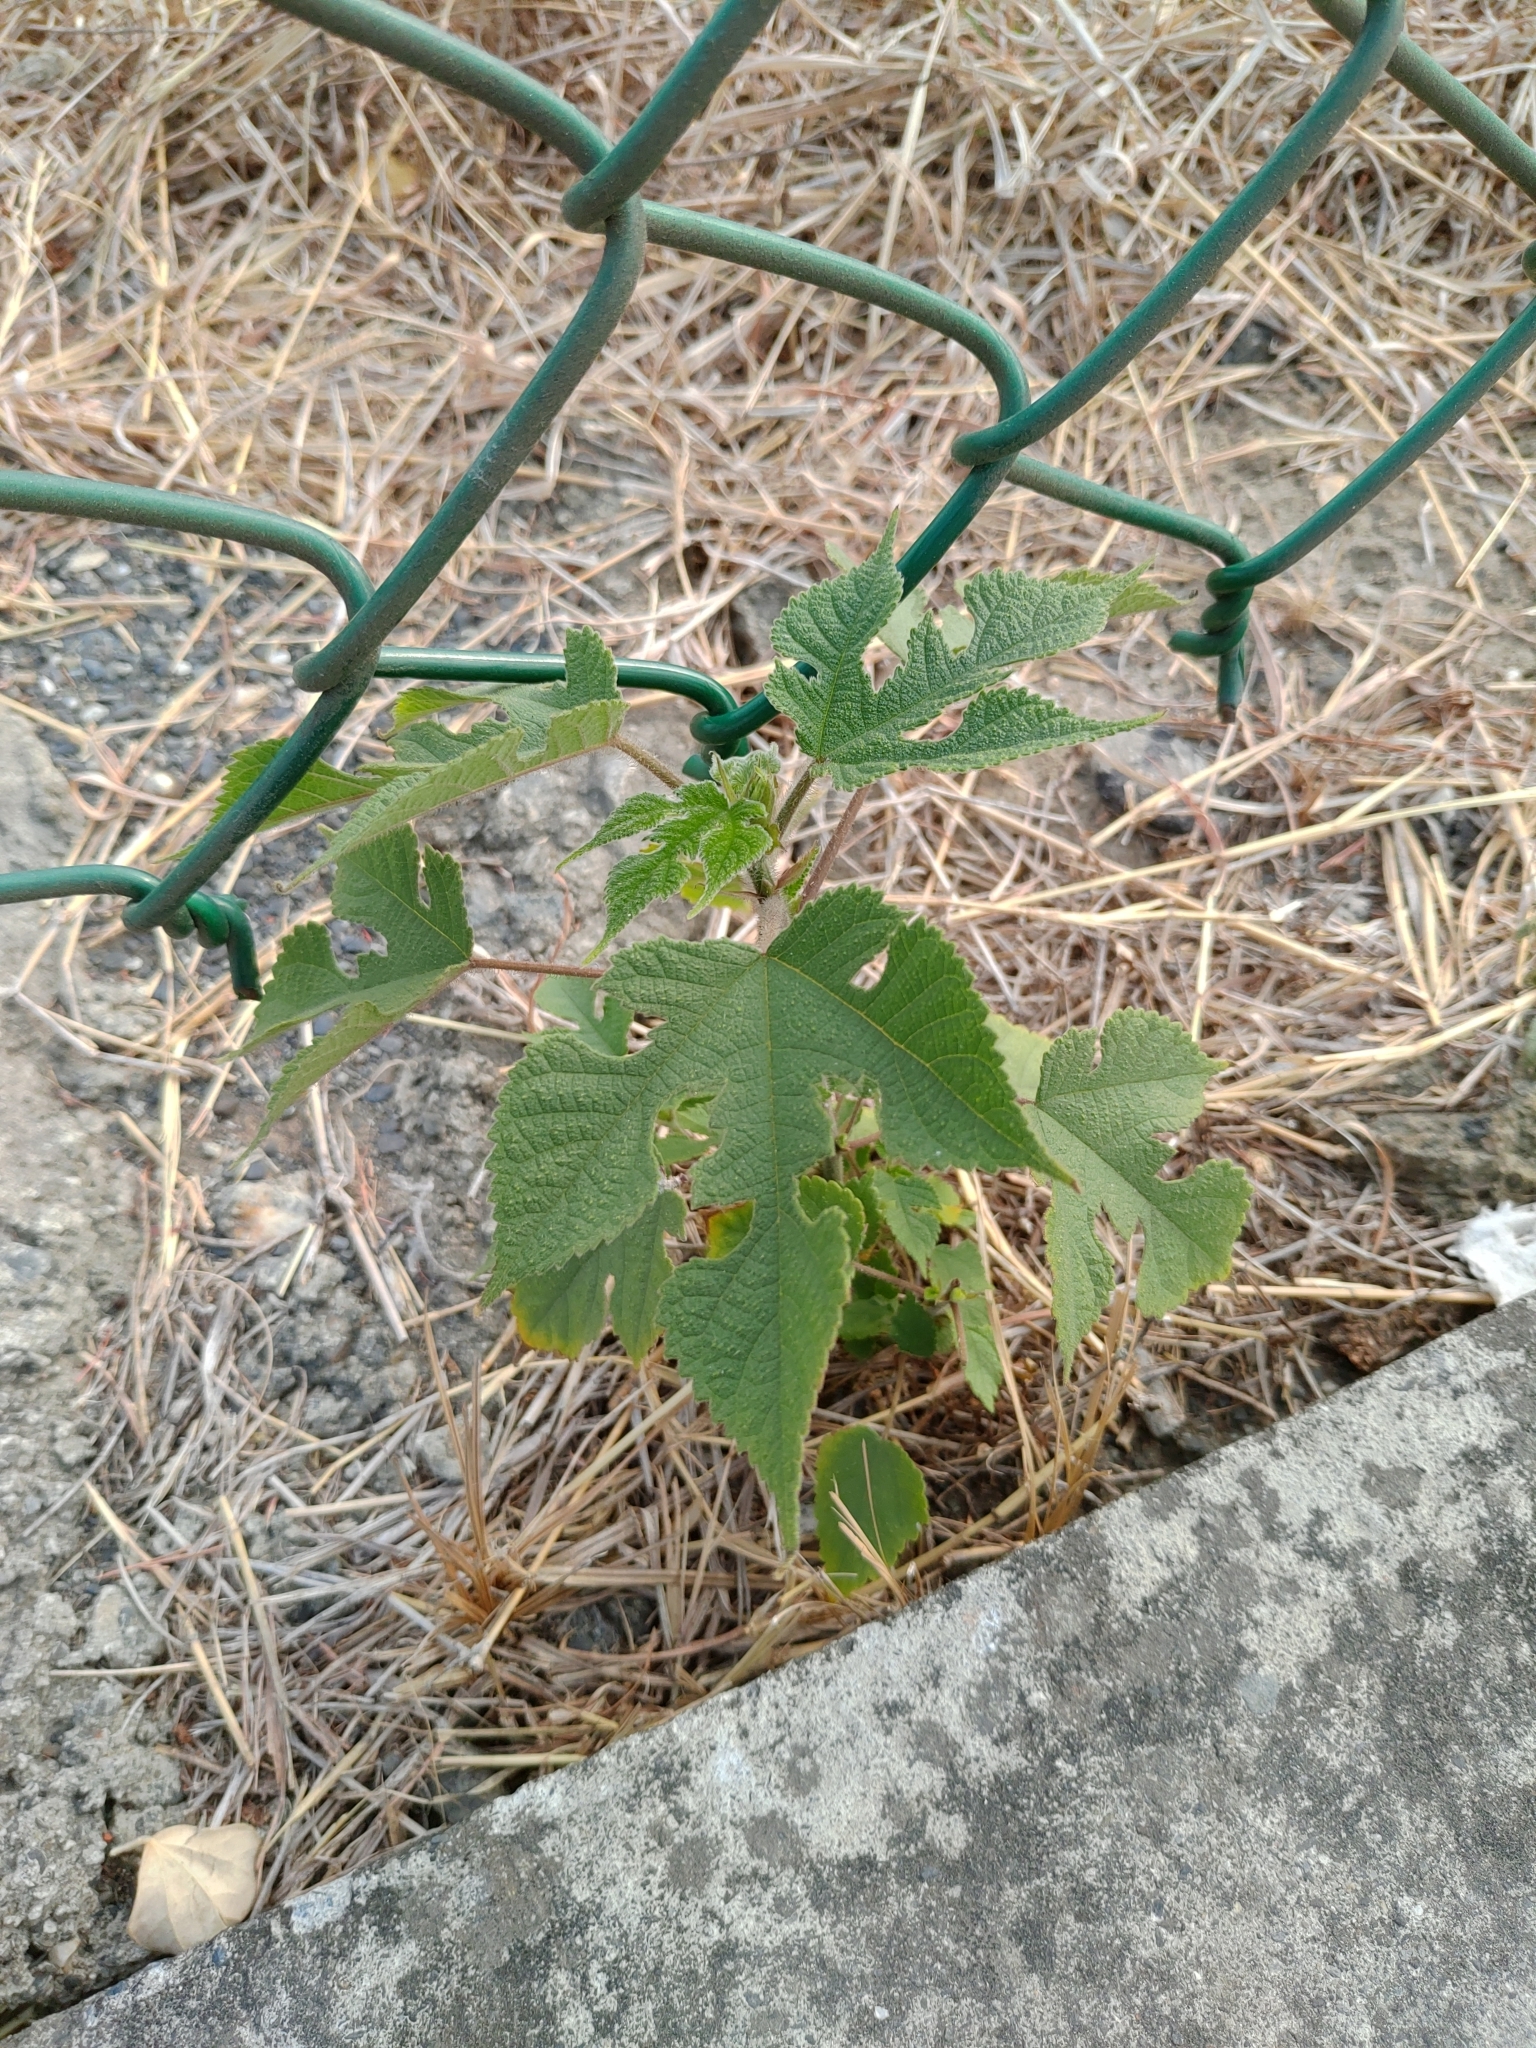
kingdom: Plantae
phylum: Tracheophyta
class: Magnoliopsida
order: Rosales
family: Moraceae
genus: Broussonetia
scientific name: Broussonetia papyrifera
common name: Paper mulberry
